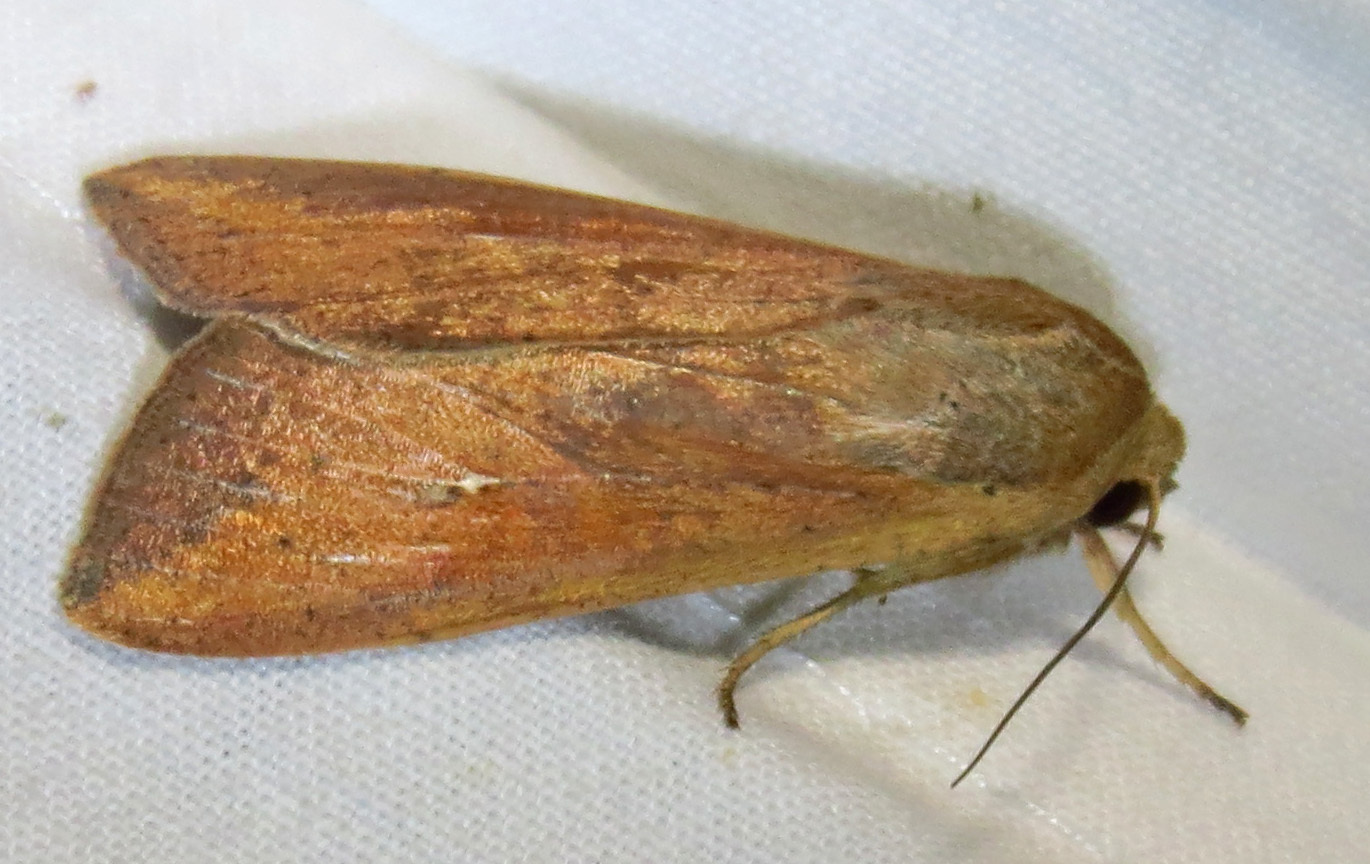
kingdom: Animalia
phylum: Arthropoda
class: Insecta
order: Lepidoptera
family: Noctuidae
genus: Mythimna
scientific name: Mythimna unipuncta
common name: White-speck
